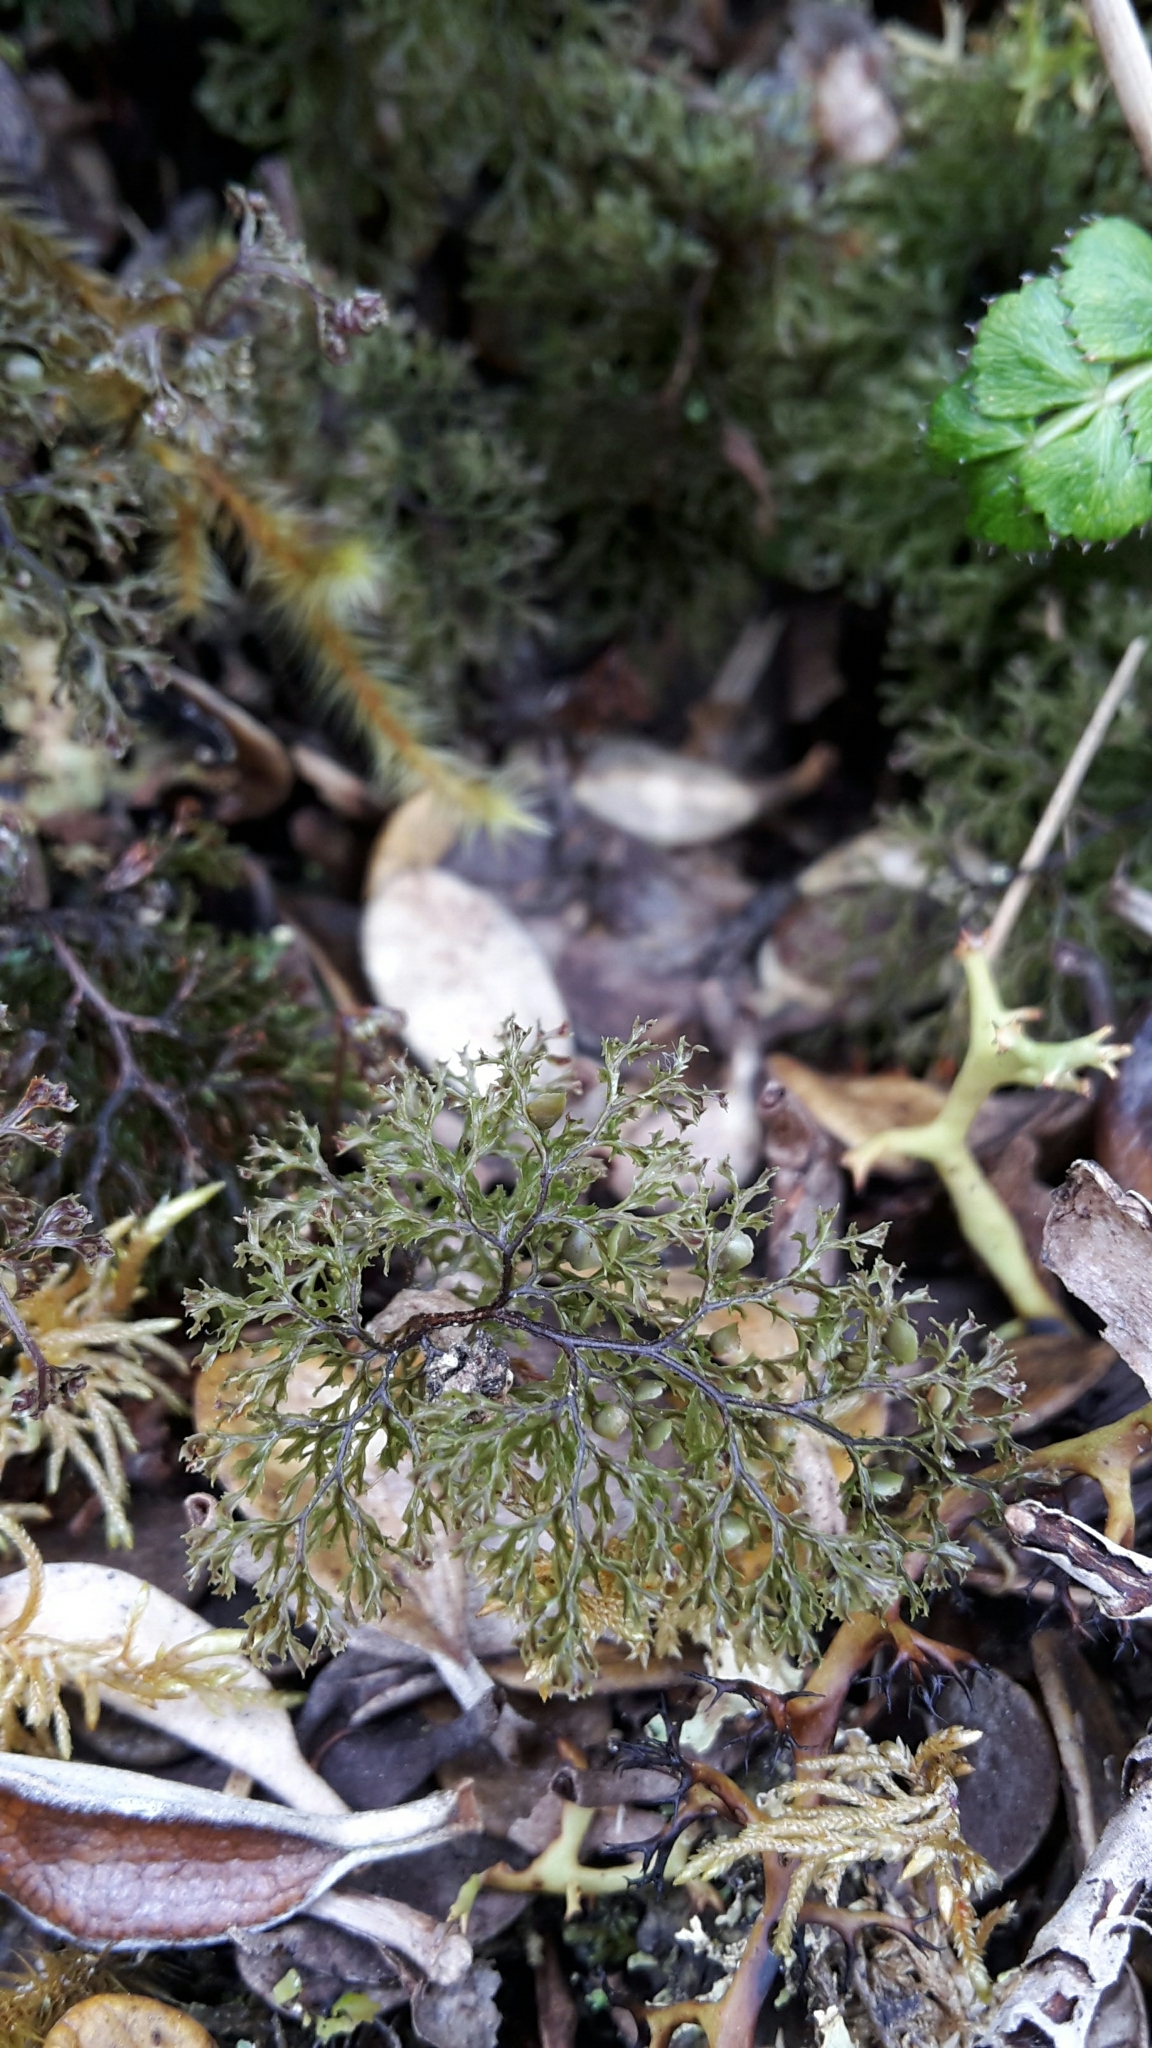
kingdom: Plantae
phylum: Tracheophyta
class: Polypodiopsida
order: Hymenophyllales
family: Hymenophyllaceae
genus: Hymenophyllum
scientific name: Hymenophyllum multifidum
